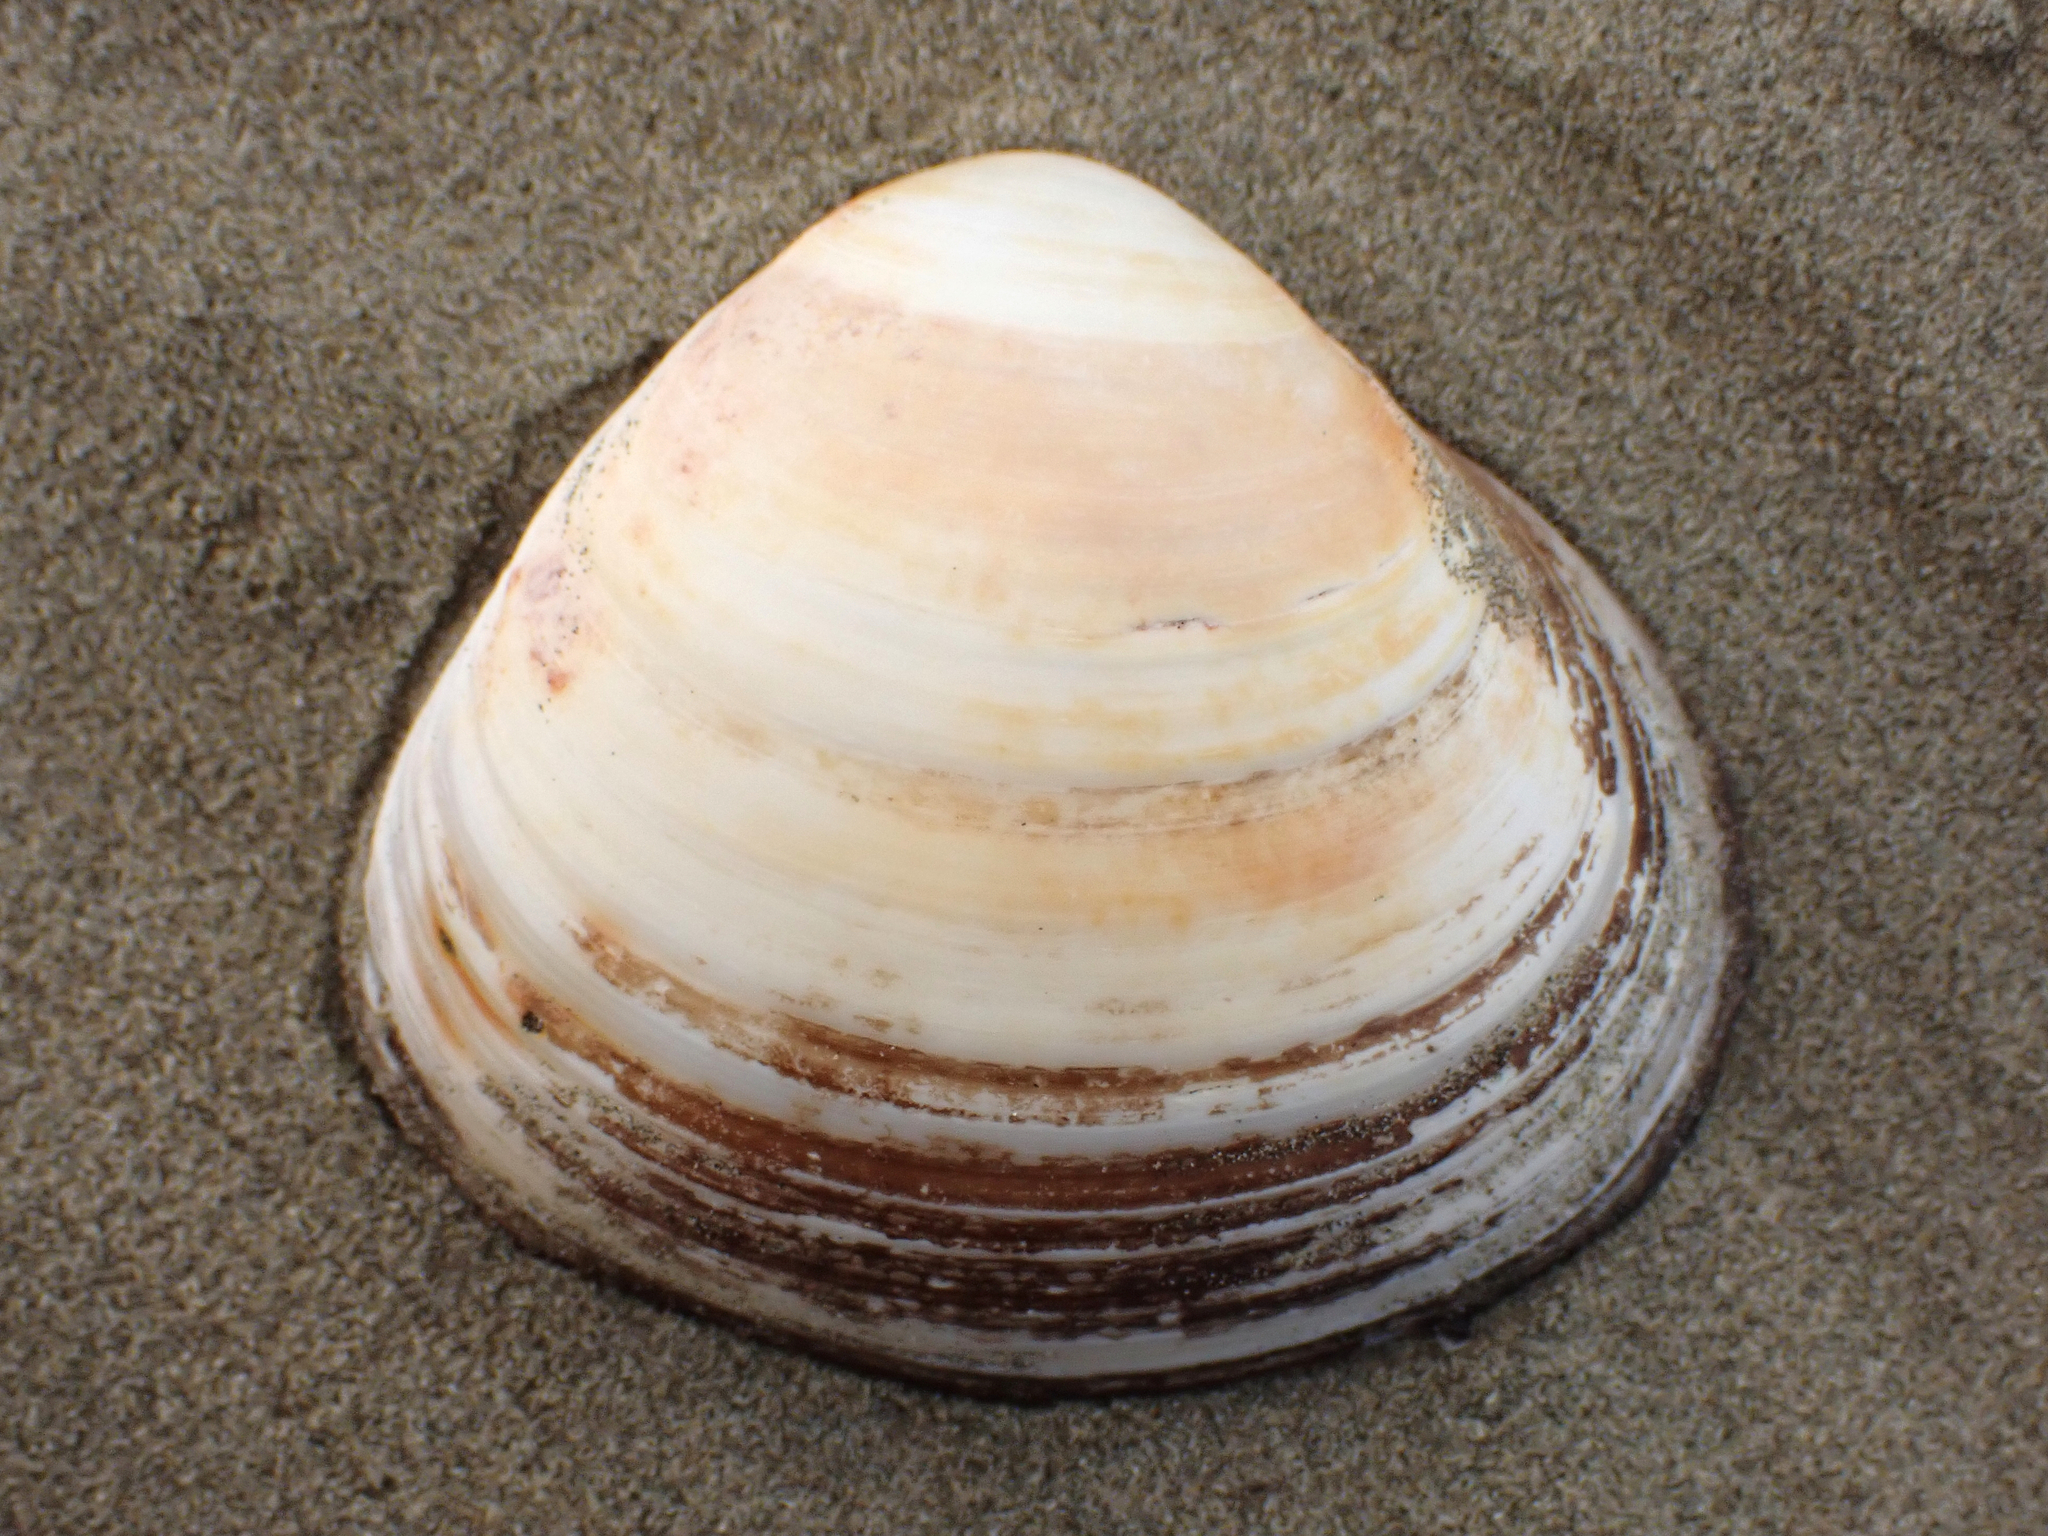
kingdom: Animalia
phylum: Mollusca
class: Bivalvia
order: Venerida
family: Mactridae
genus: Spisula
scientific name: Spisula discors
